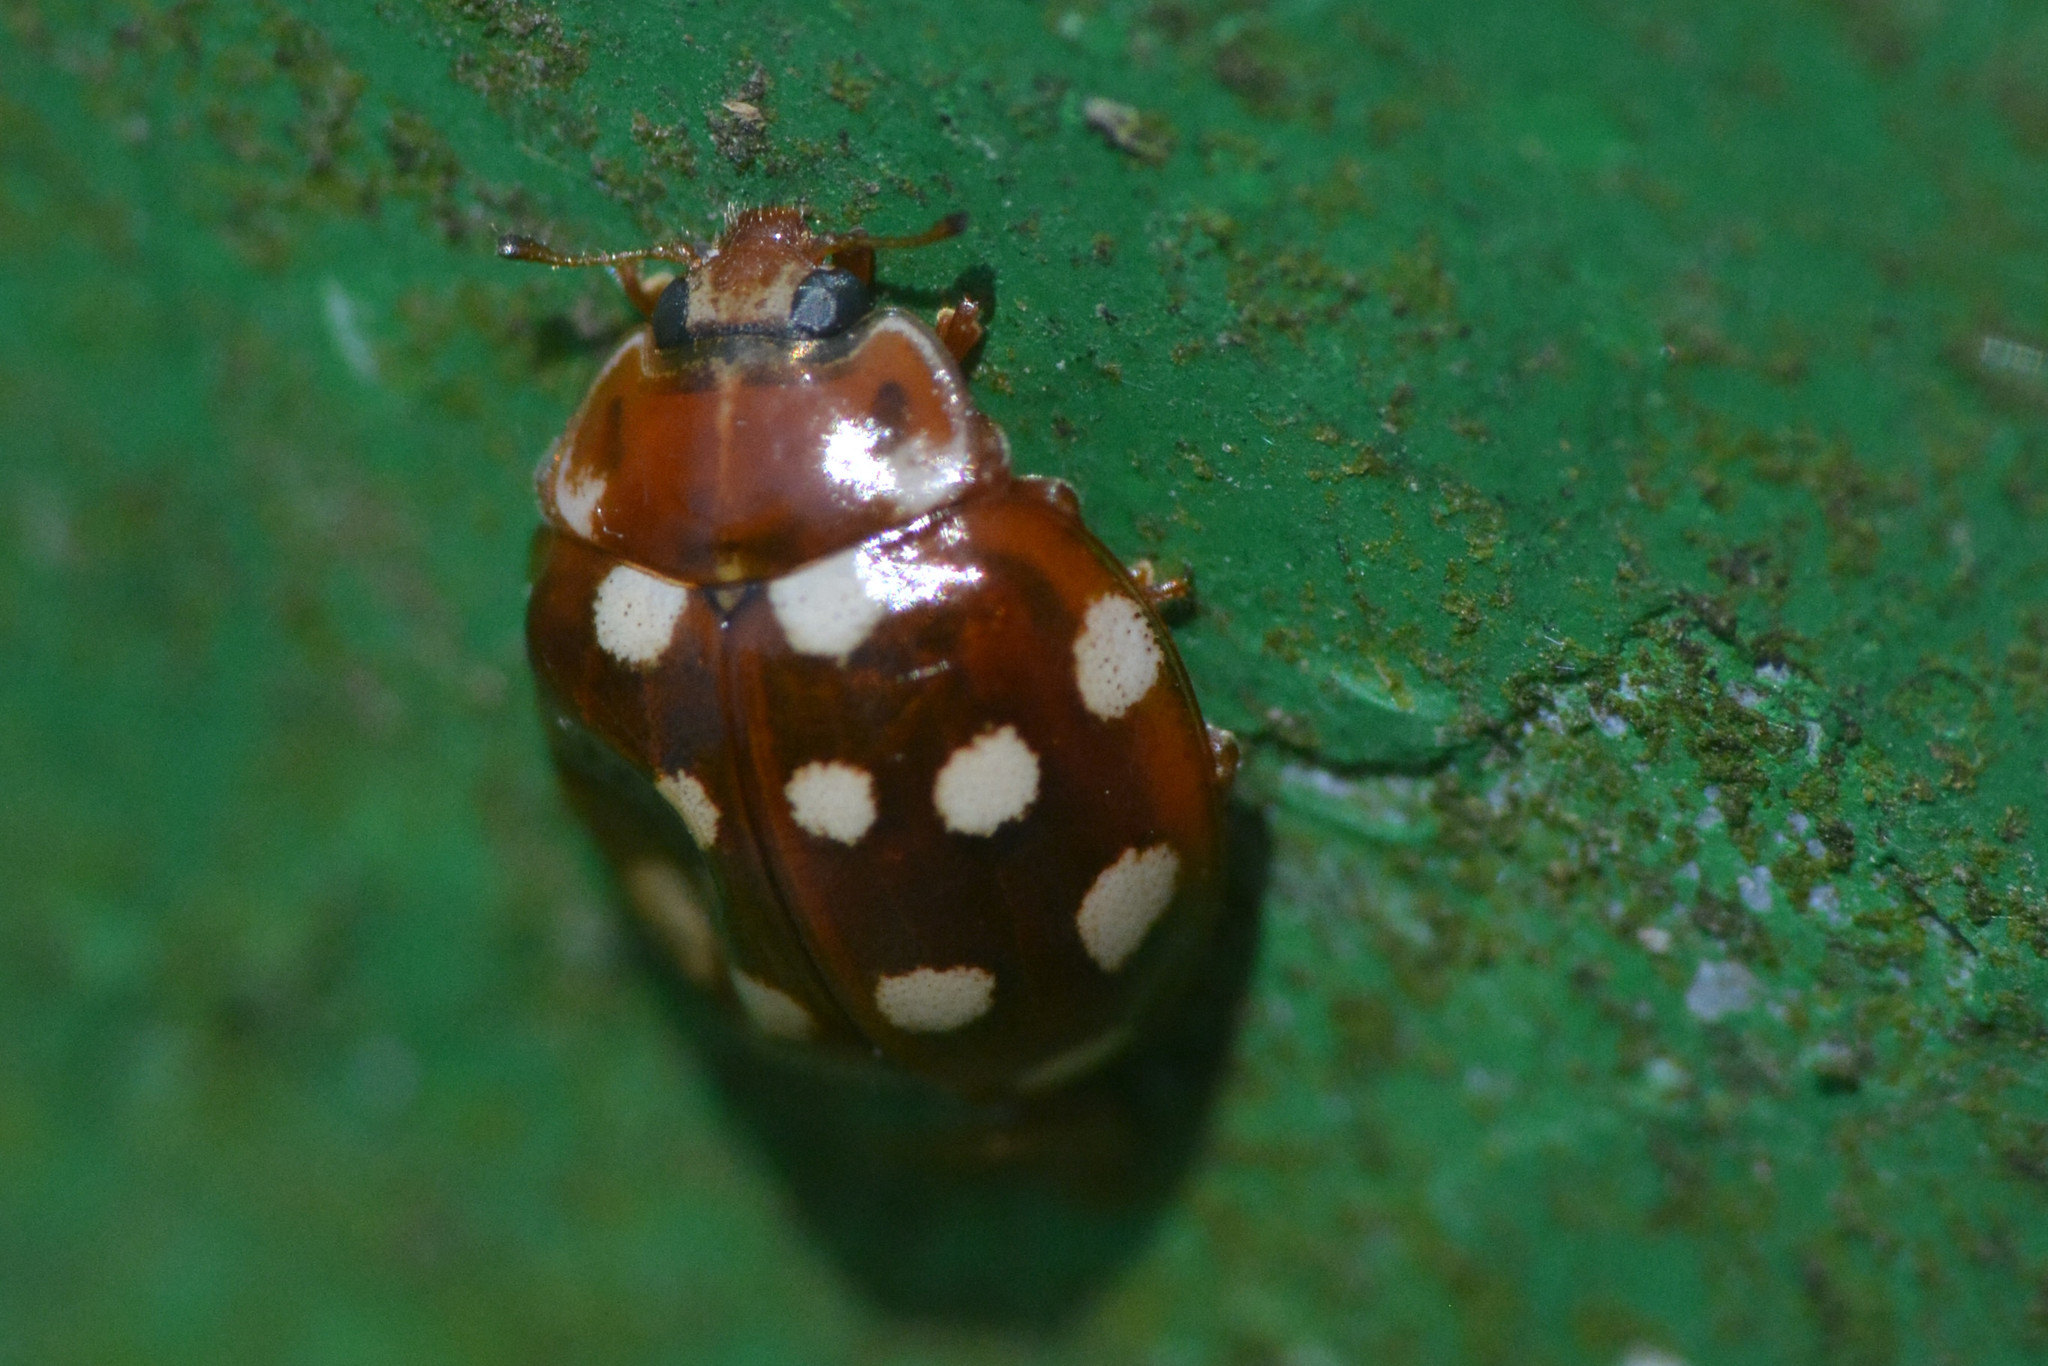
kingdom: Animalia
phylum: Arthropoda
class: Insecta
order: Coleoptera
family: Coccinellidae
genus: Calvia
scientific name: Calvia quatuordecimguttata
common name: Cream-spot ladybird
